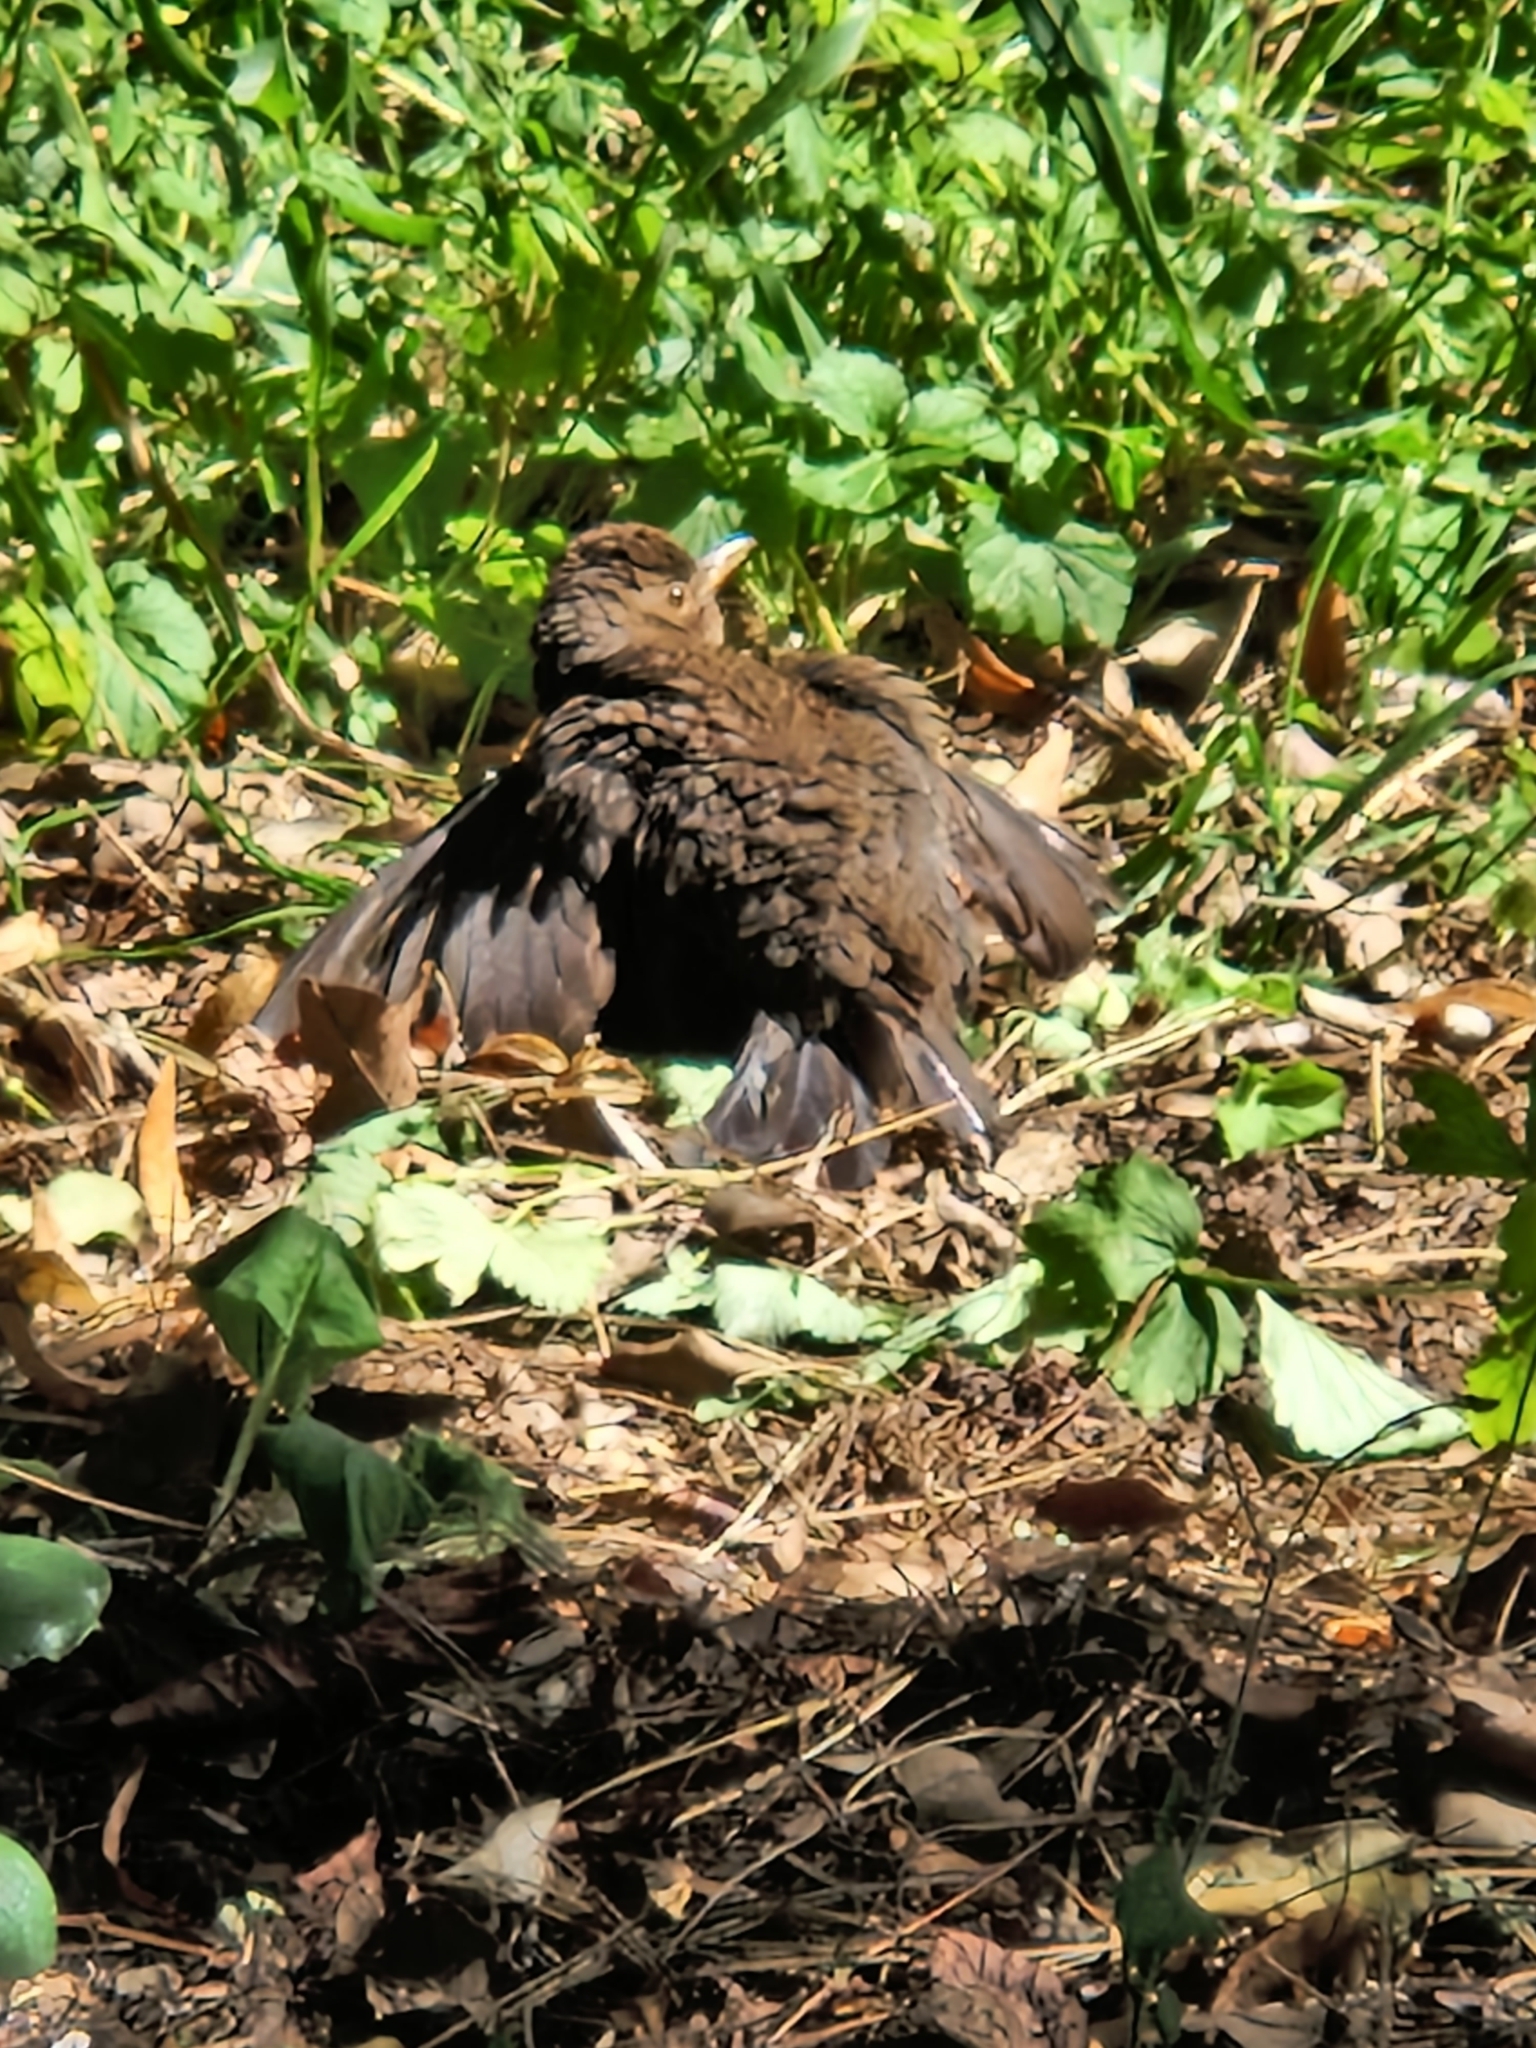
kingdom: Animalia
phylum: Chordata
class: Aves
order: Passeriformes
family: Turdidae
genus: Turdus
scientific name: Turdus merula
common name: Common blackbird
